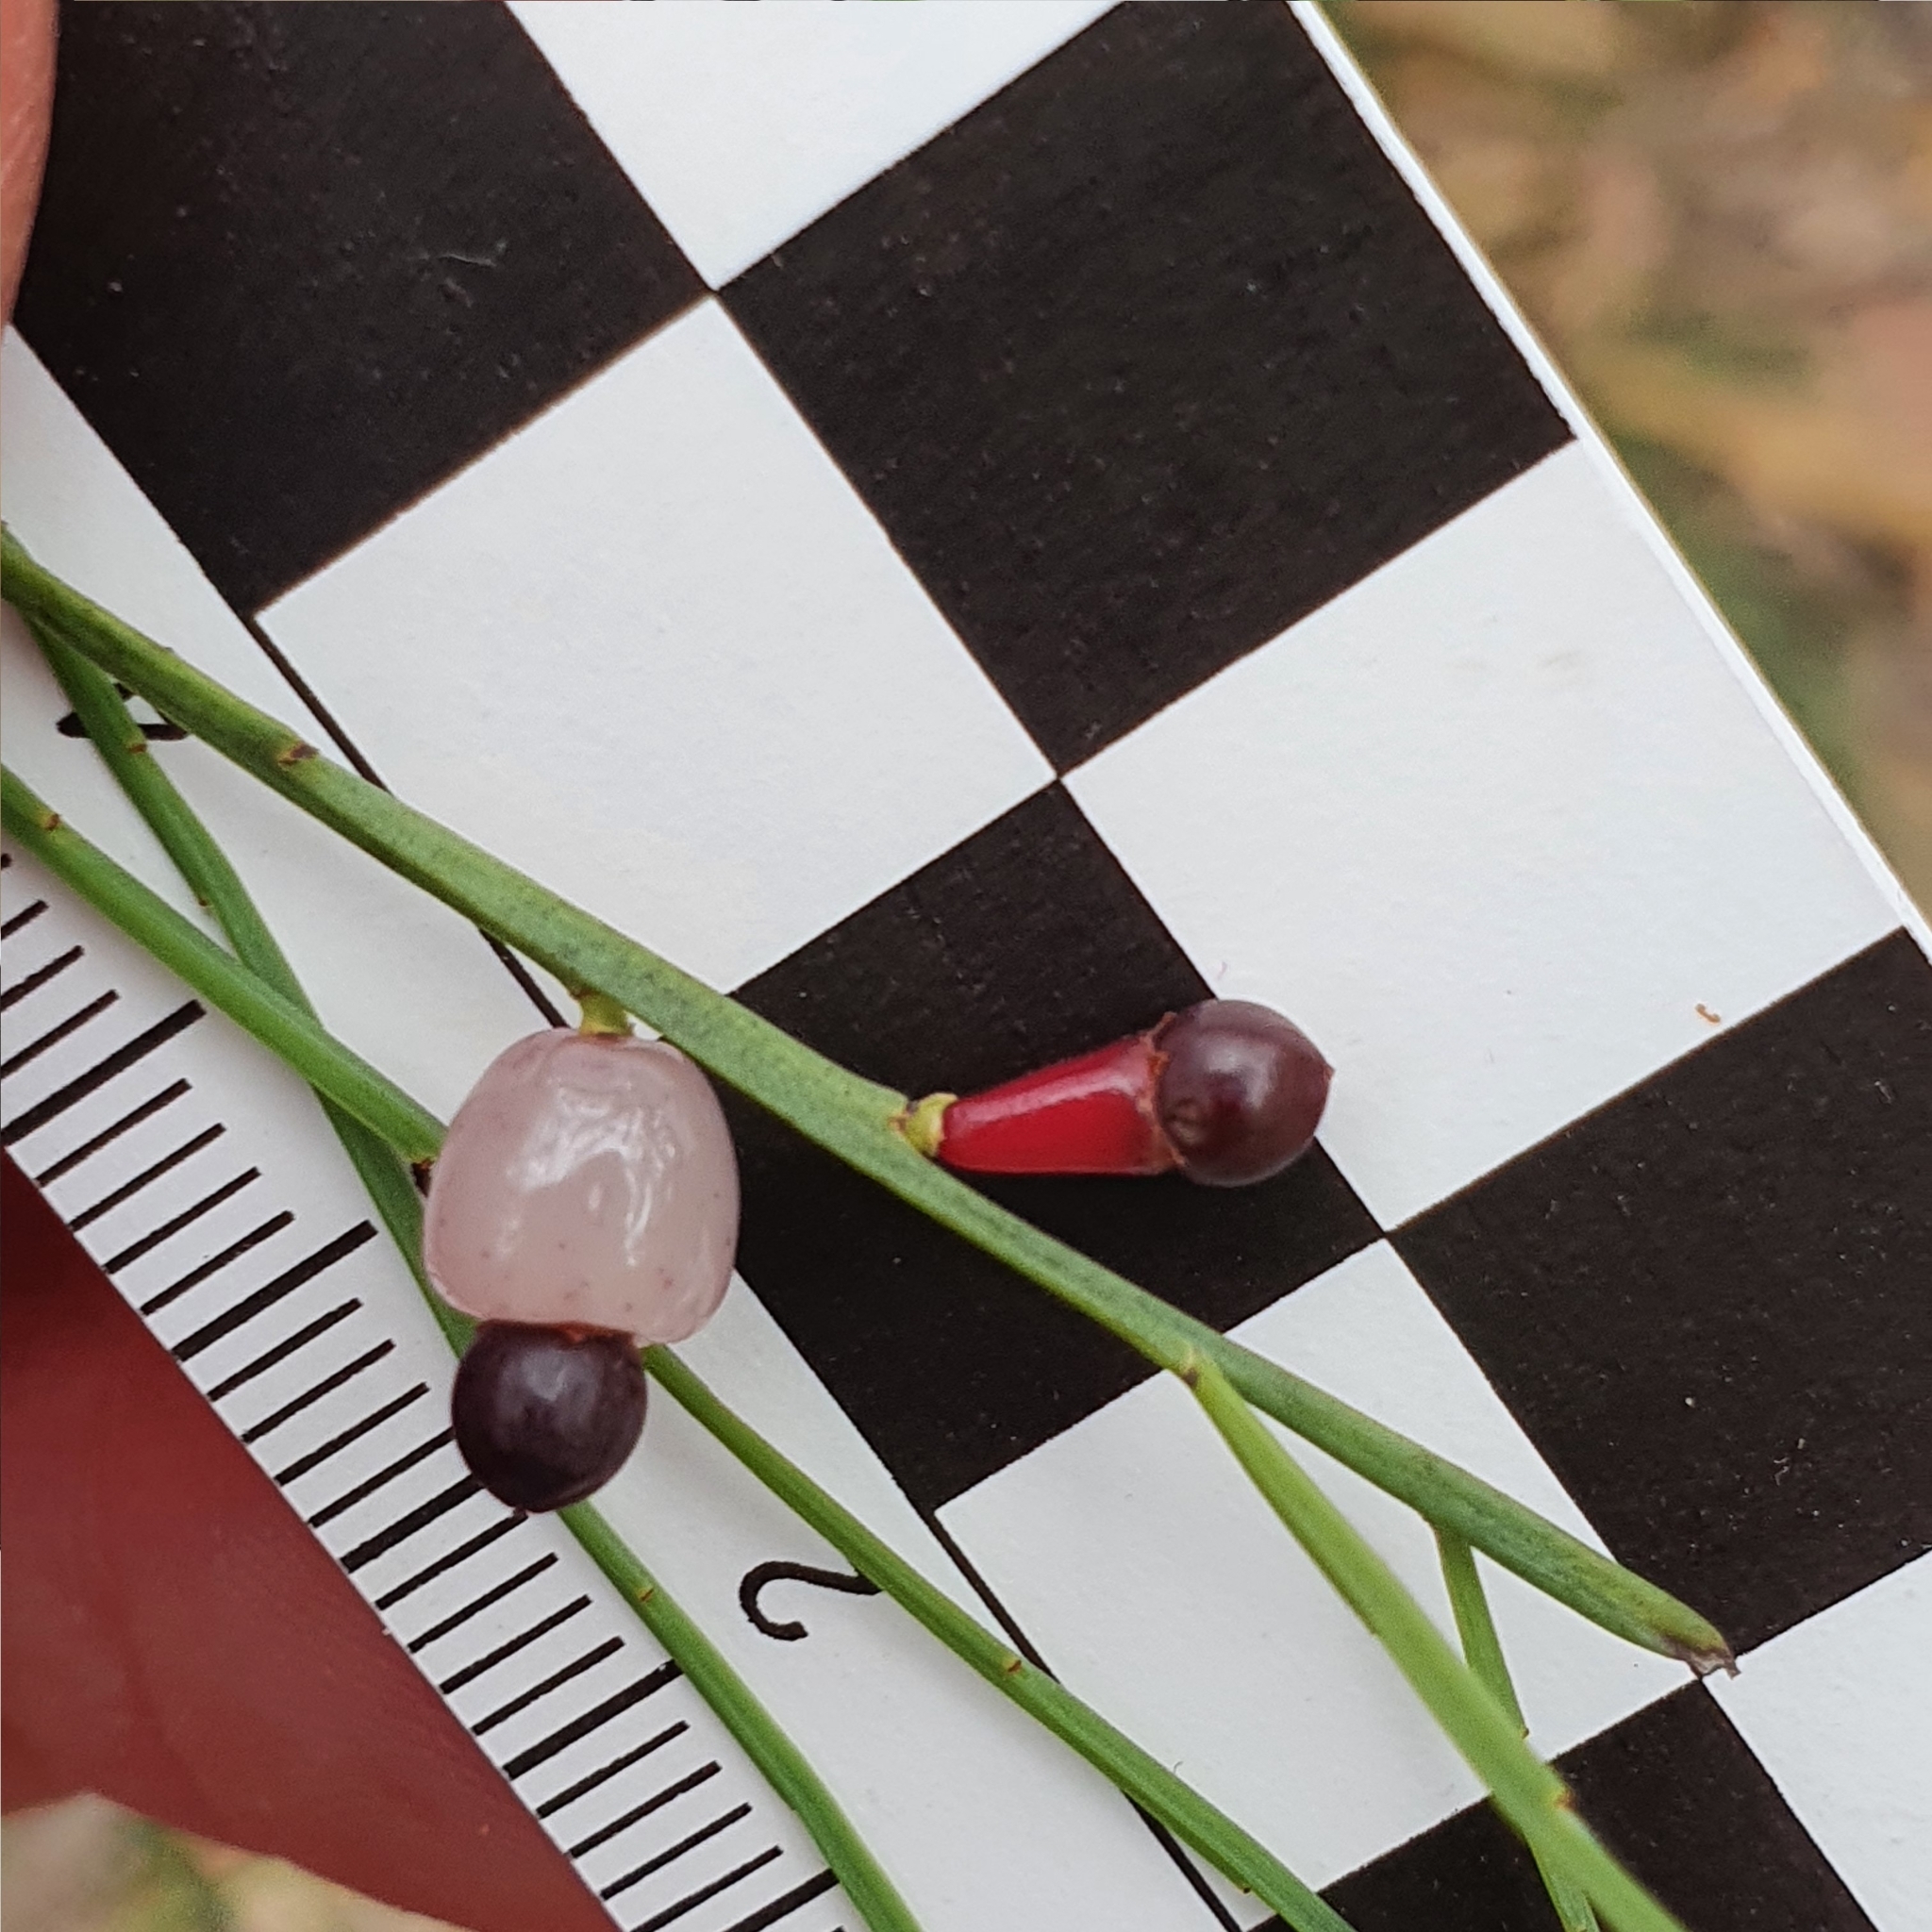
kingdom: Plantae
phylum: Tracheophyta
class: Magnoliopsida
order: Santalales
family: Santalaceae
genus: Exocarpos
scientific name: Exocarpos strictus
